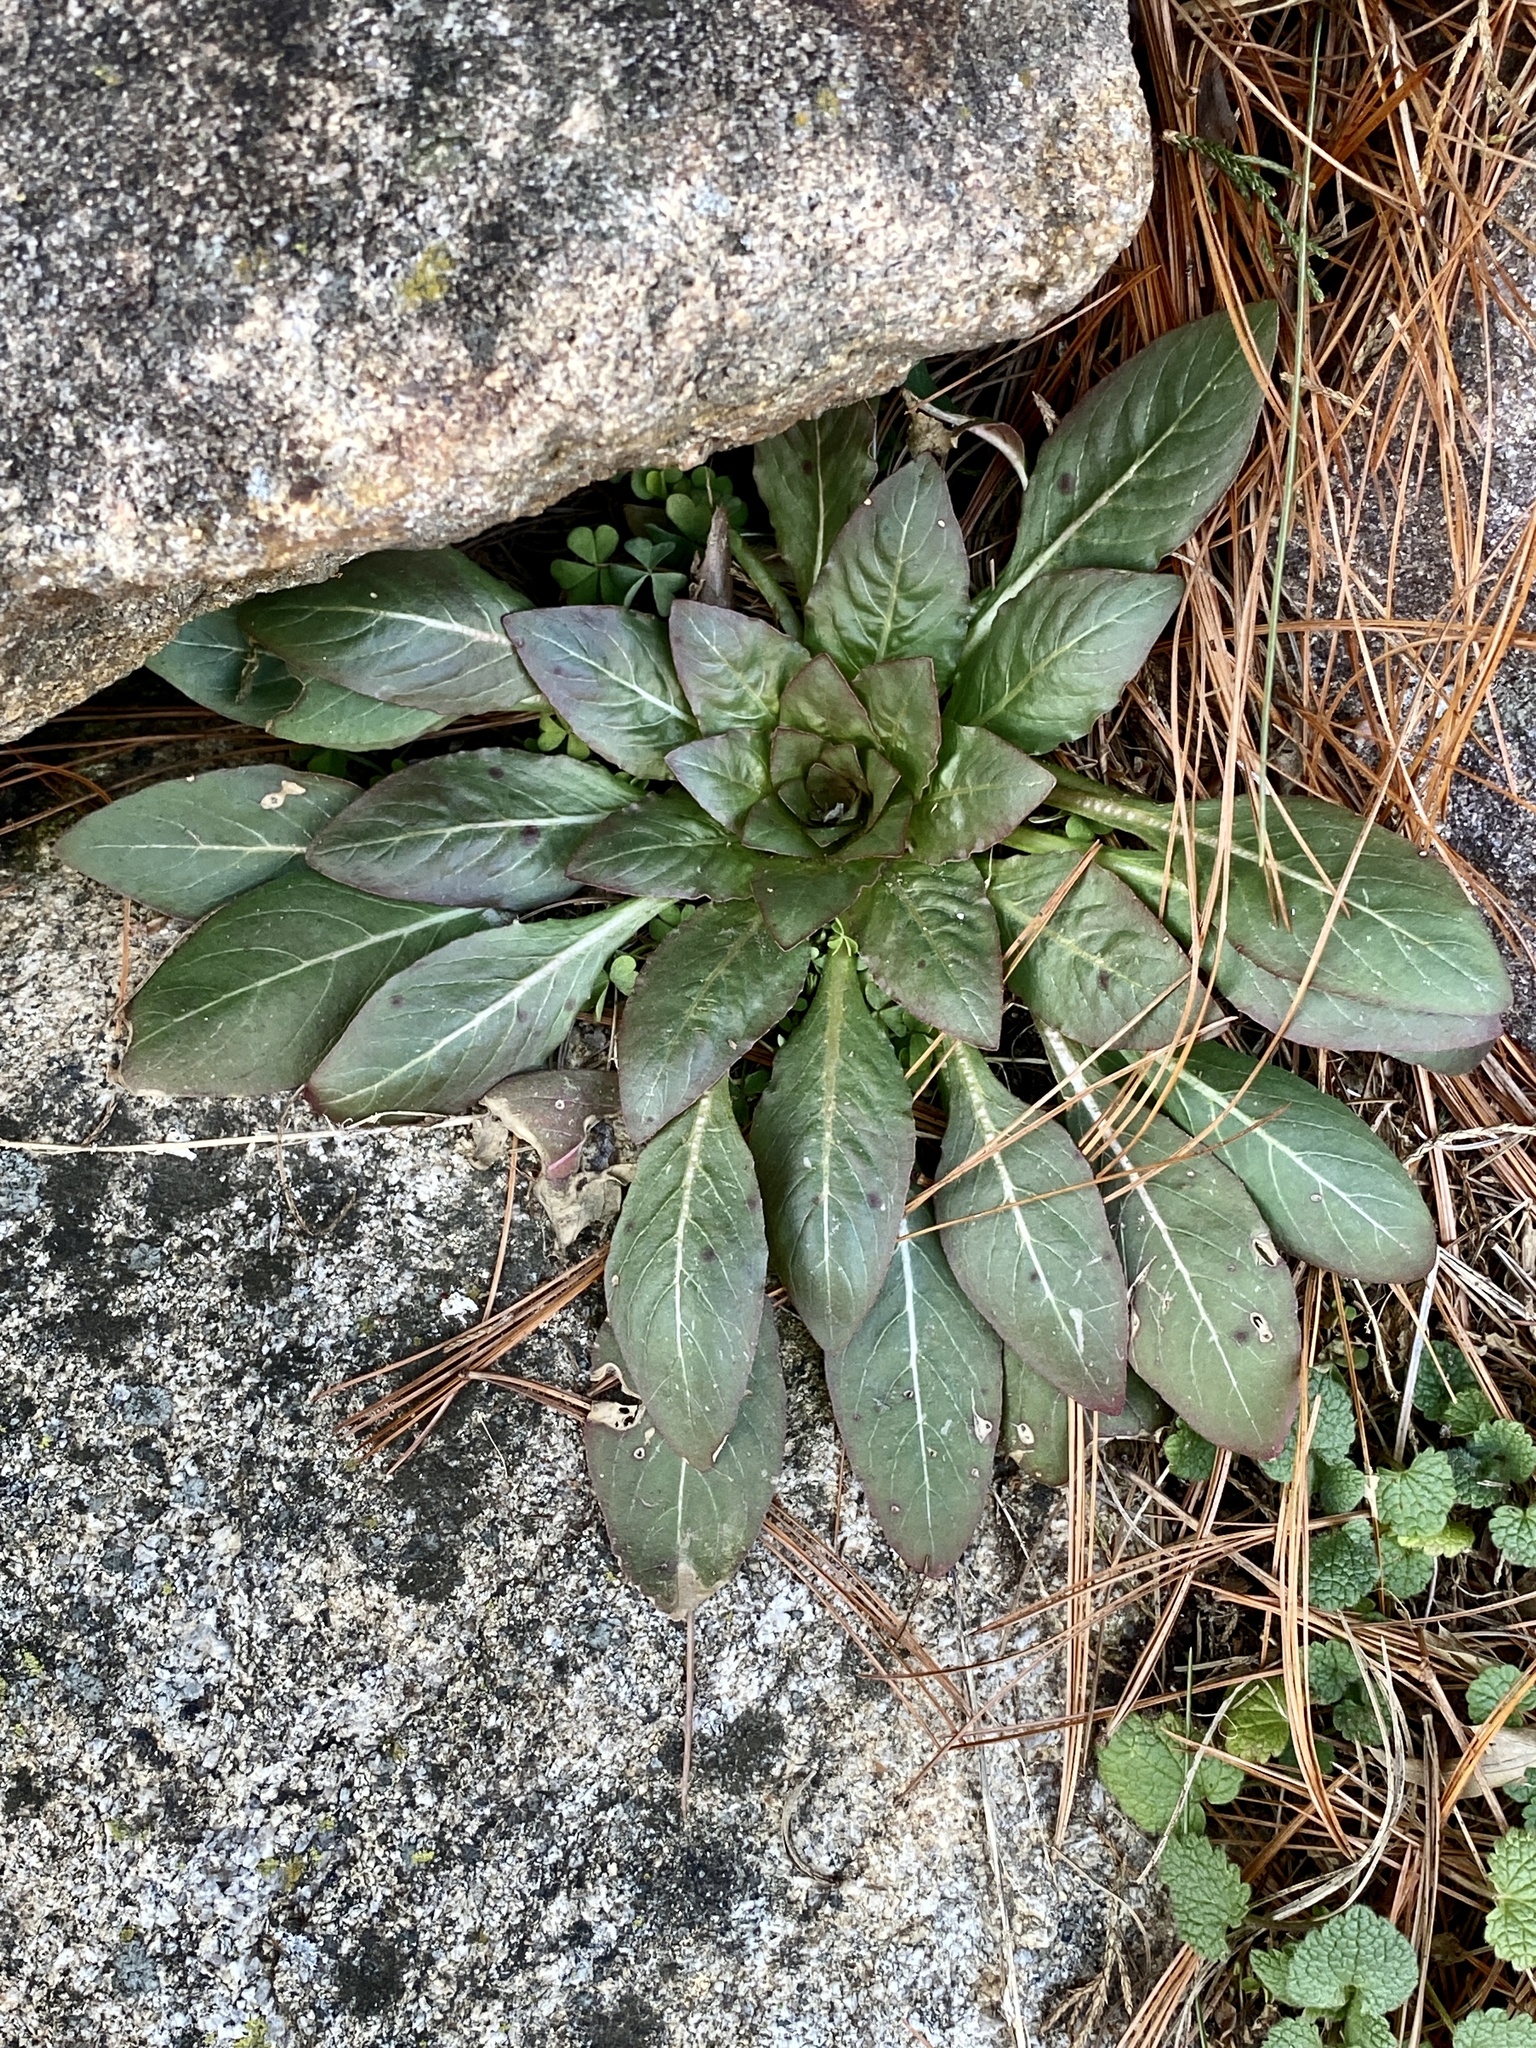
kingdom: Plantae
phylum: Tracheophyta
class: Magnoliopsida
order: Myrtales
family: Onagraceae
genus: Oenothera
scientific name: Oenothera biennis
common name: Common evening-primrose
